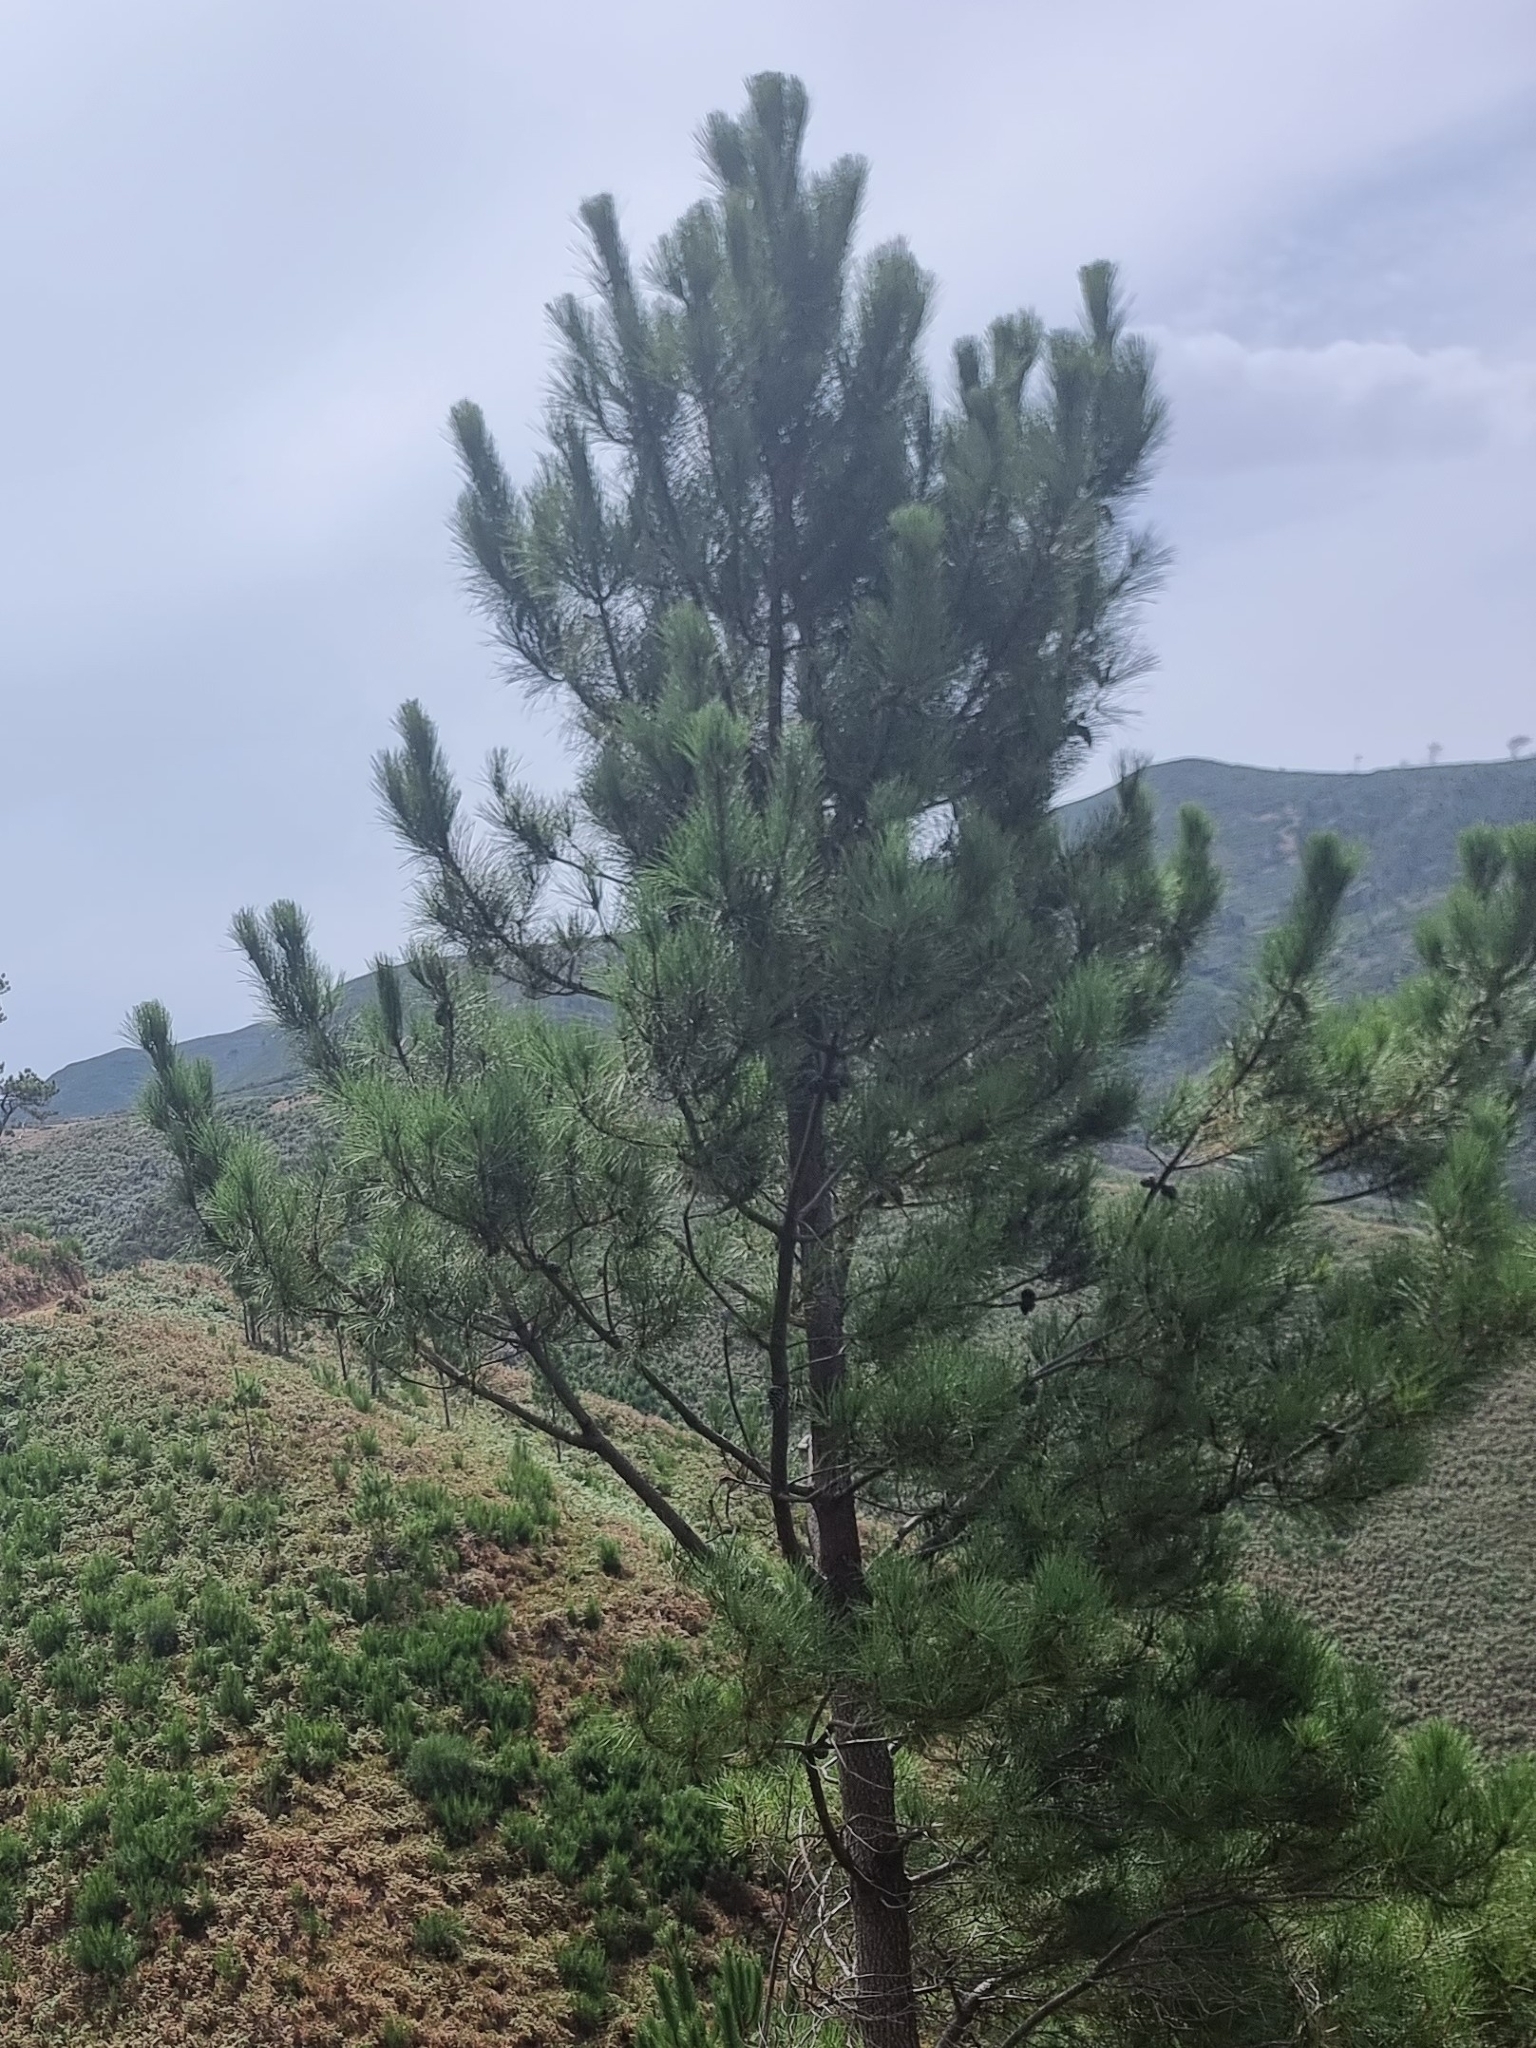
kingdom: Plantae
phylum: Tracheophyta
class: Pinopsida
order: Pinales
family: Pinaceae
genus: Pinus
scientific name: Pinus pinaster
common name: Maritime pine
